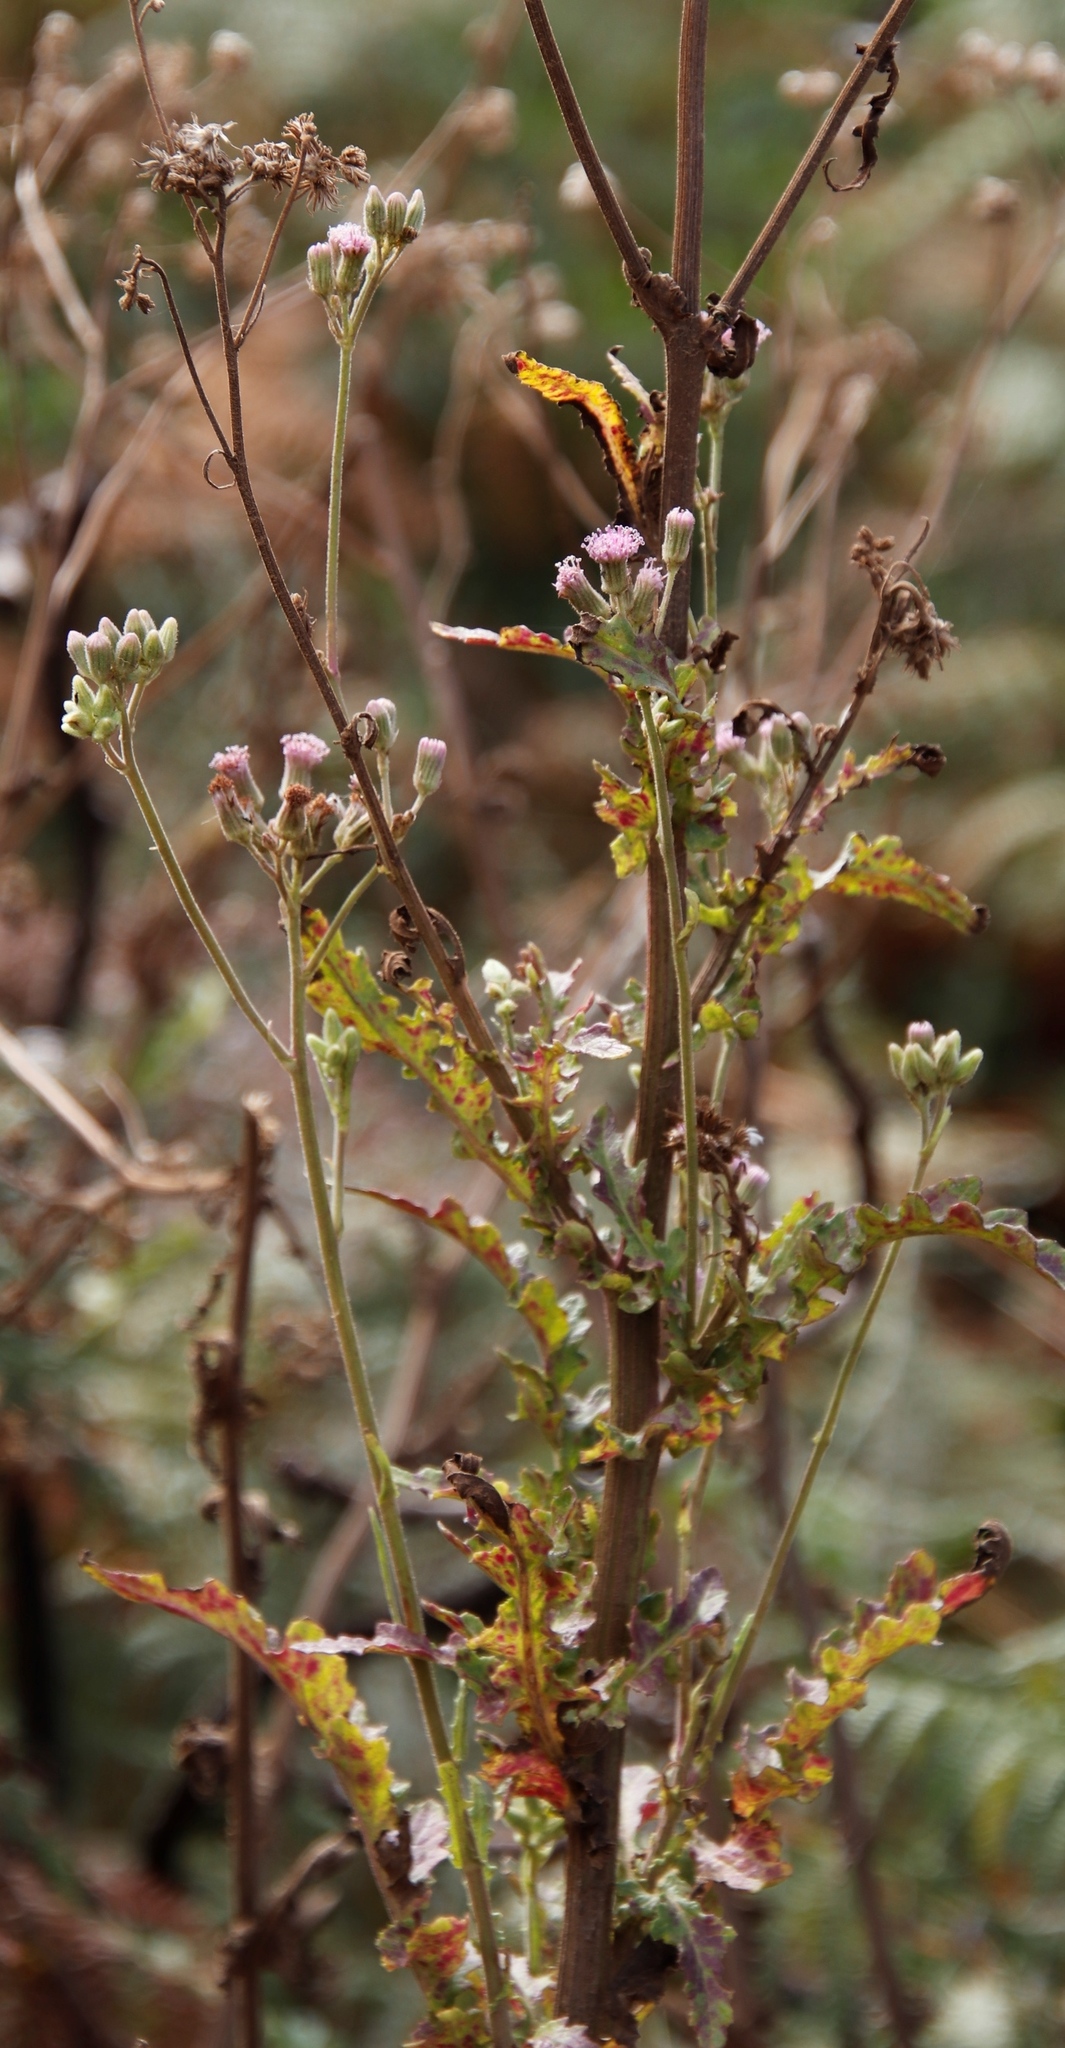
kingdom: Plantae
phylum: Tracheophyta
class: Magnoliopsida
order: Asterales
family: Asteraceae
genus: Senecio
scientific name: Senecio purpureus
